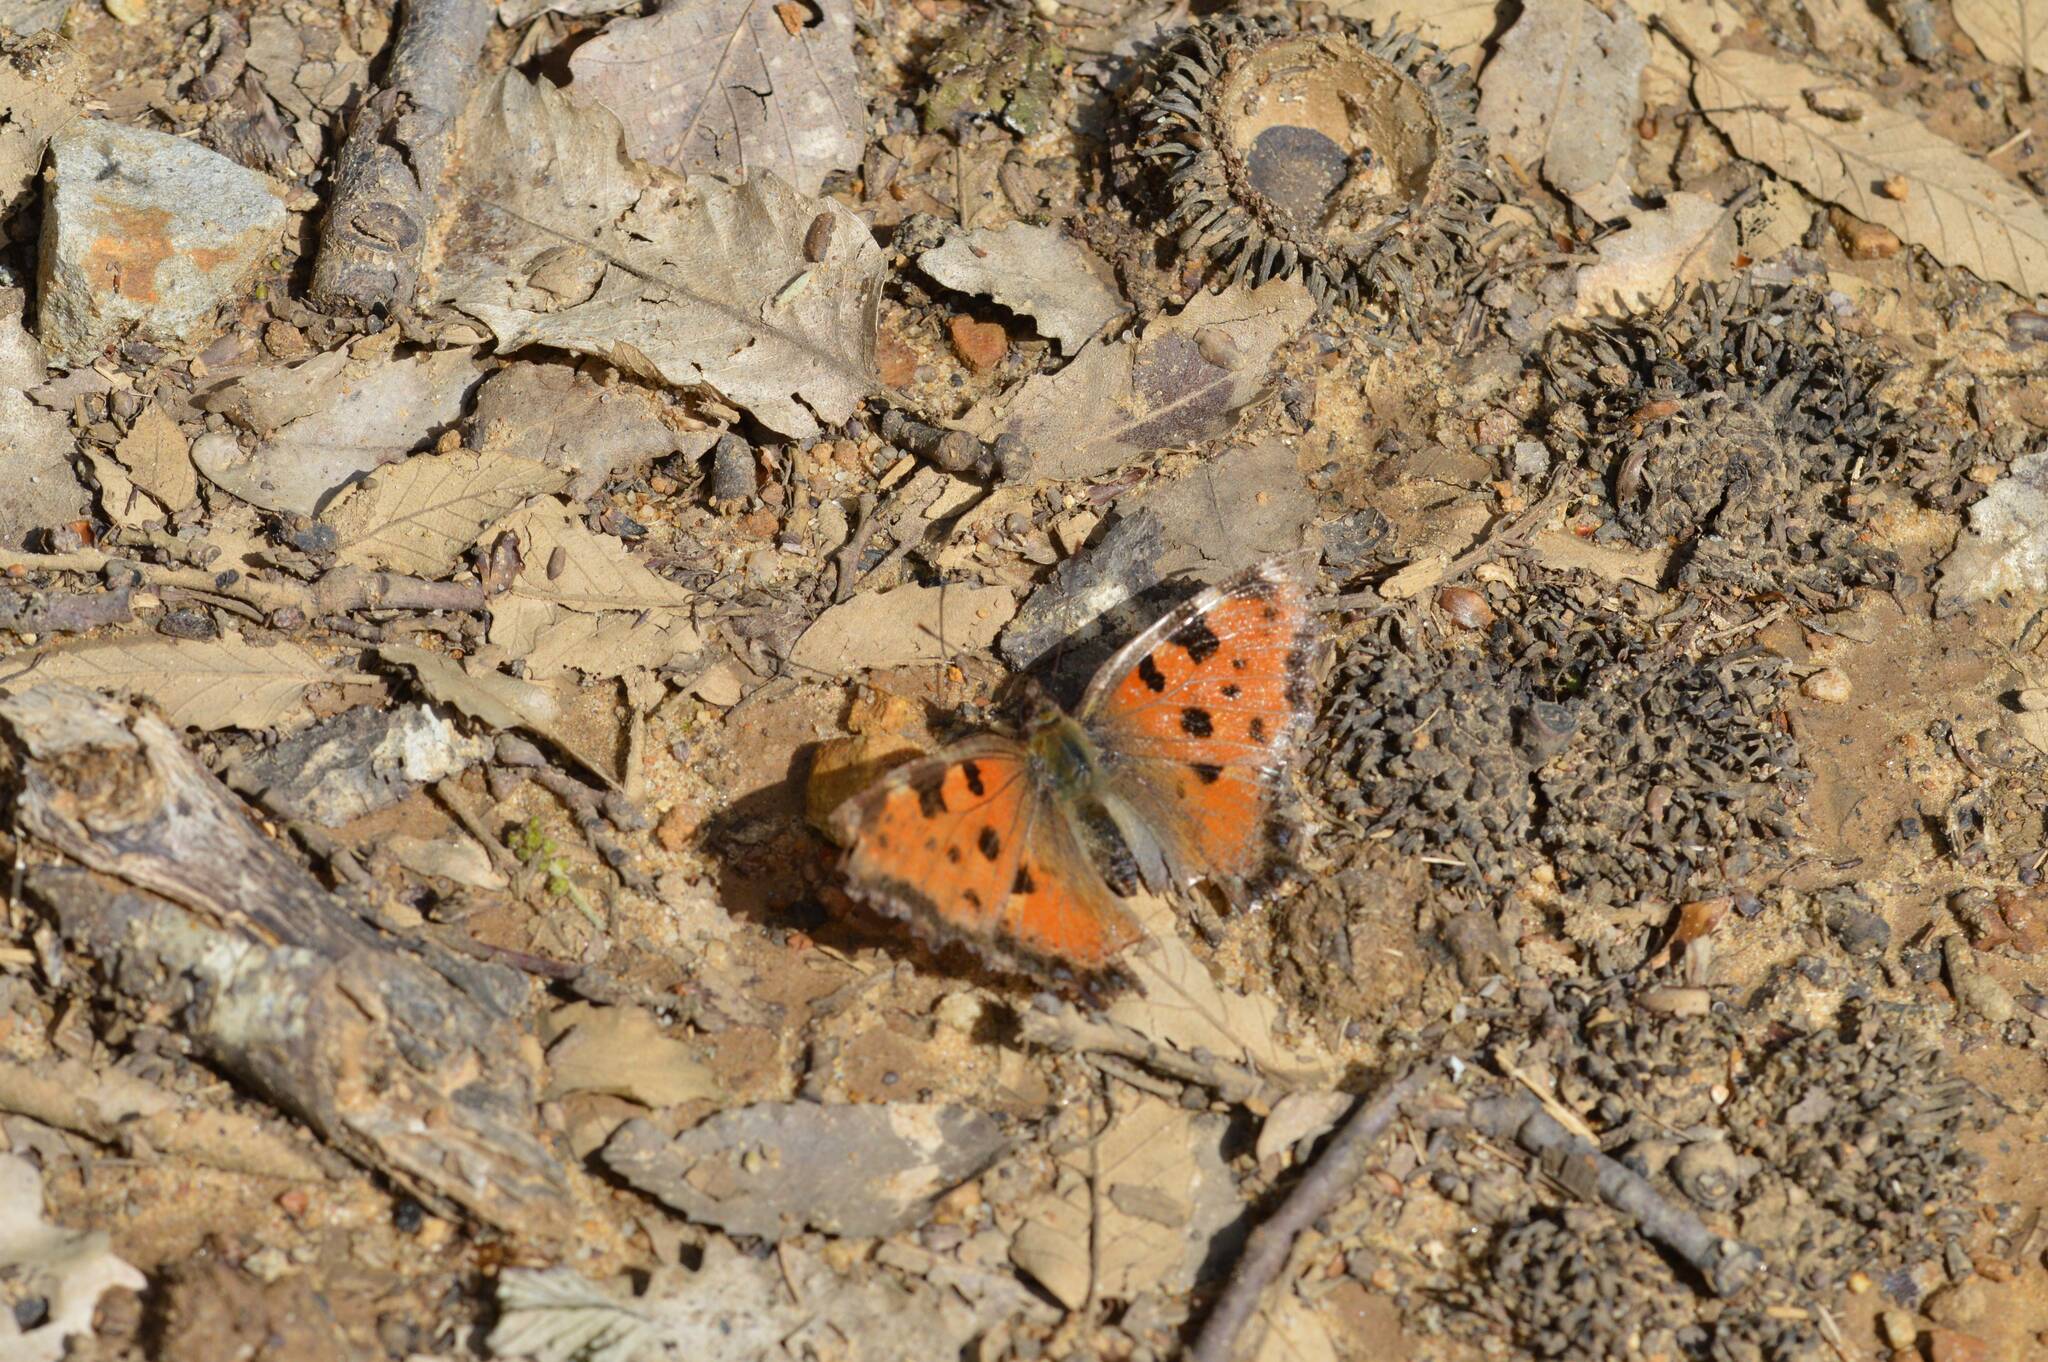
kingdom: Animalia
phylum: Arthropoda
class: Insecta
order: Lepidoptera
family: Nymphalidae
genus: Nymphalis
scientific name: Nymphalis polychloros
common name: Large tortoiseshell
